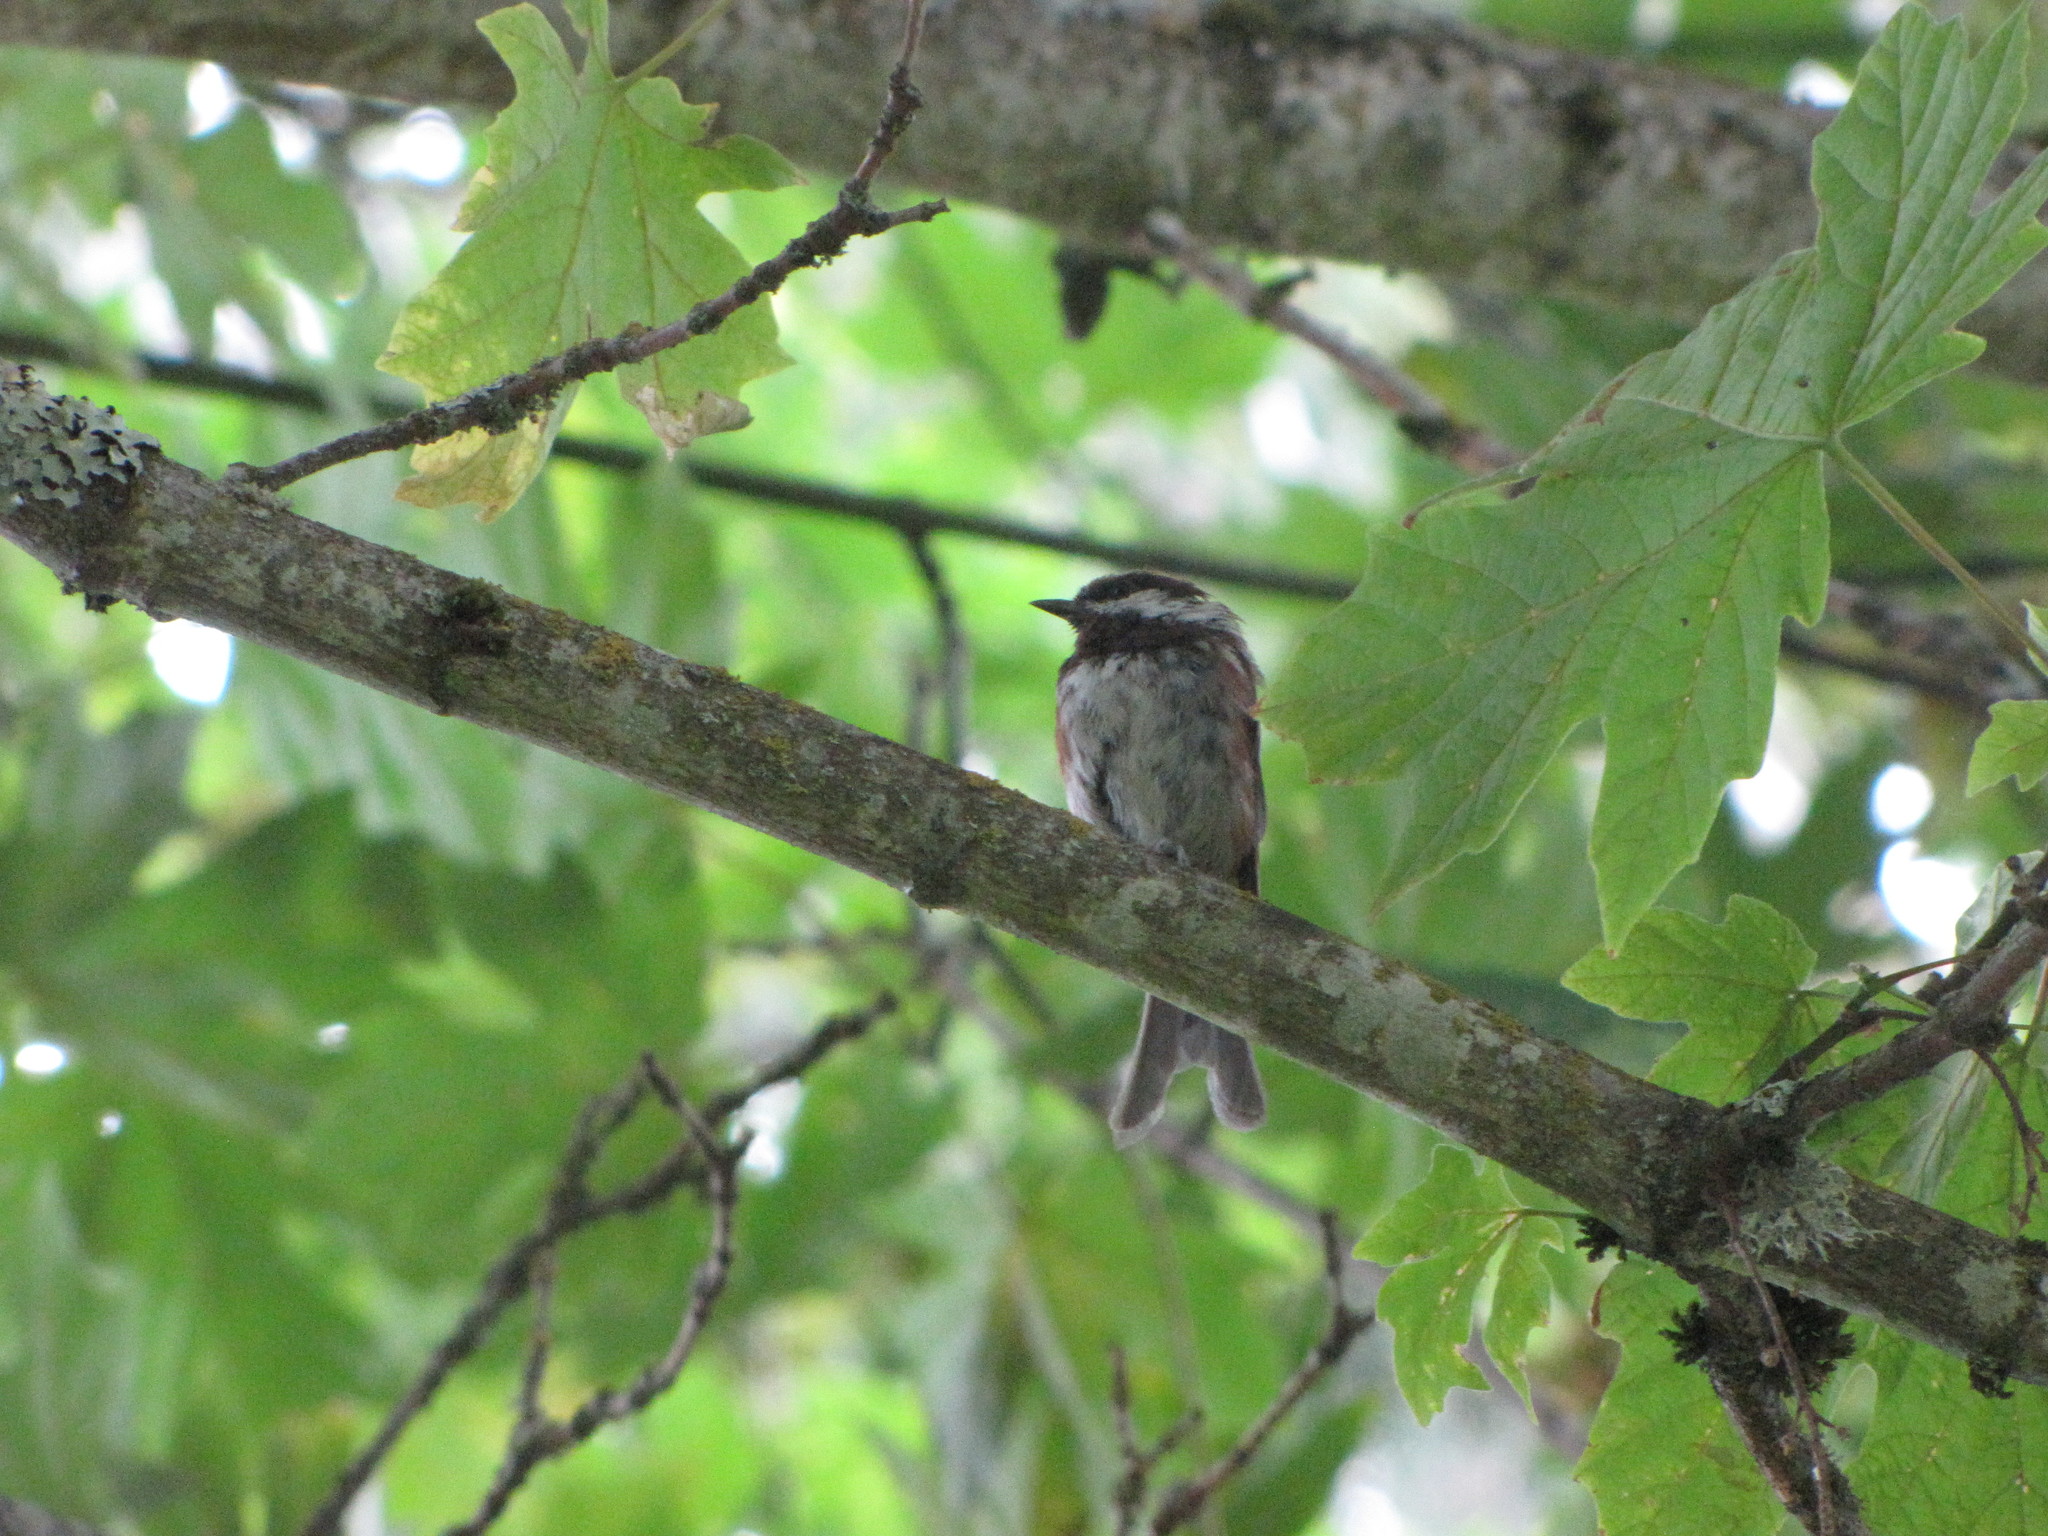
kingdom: Animalia
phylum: Chordata
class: Aves
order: Passeriformes
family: Paridae
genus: Poecile
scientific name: Poecile rufescens
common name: Chestnut-backed chickadee
